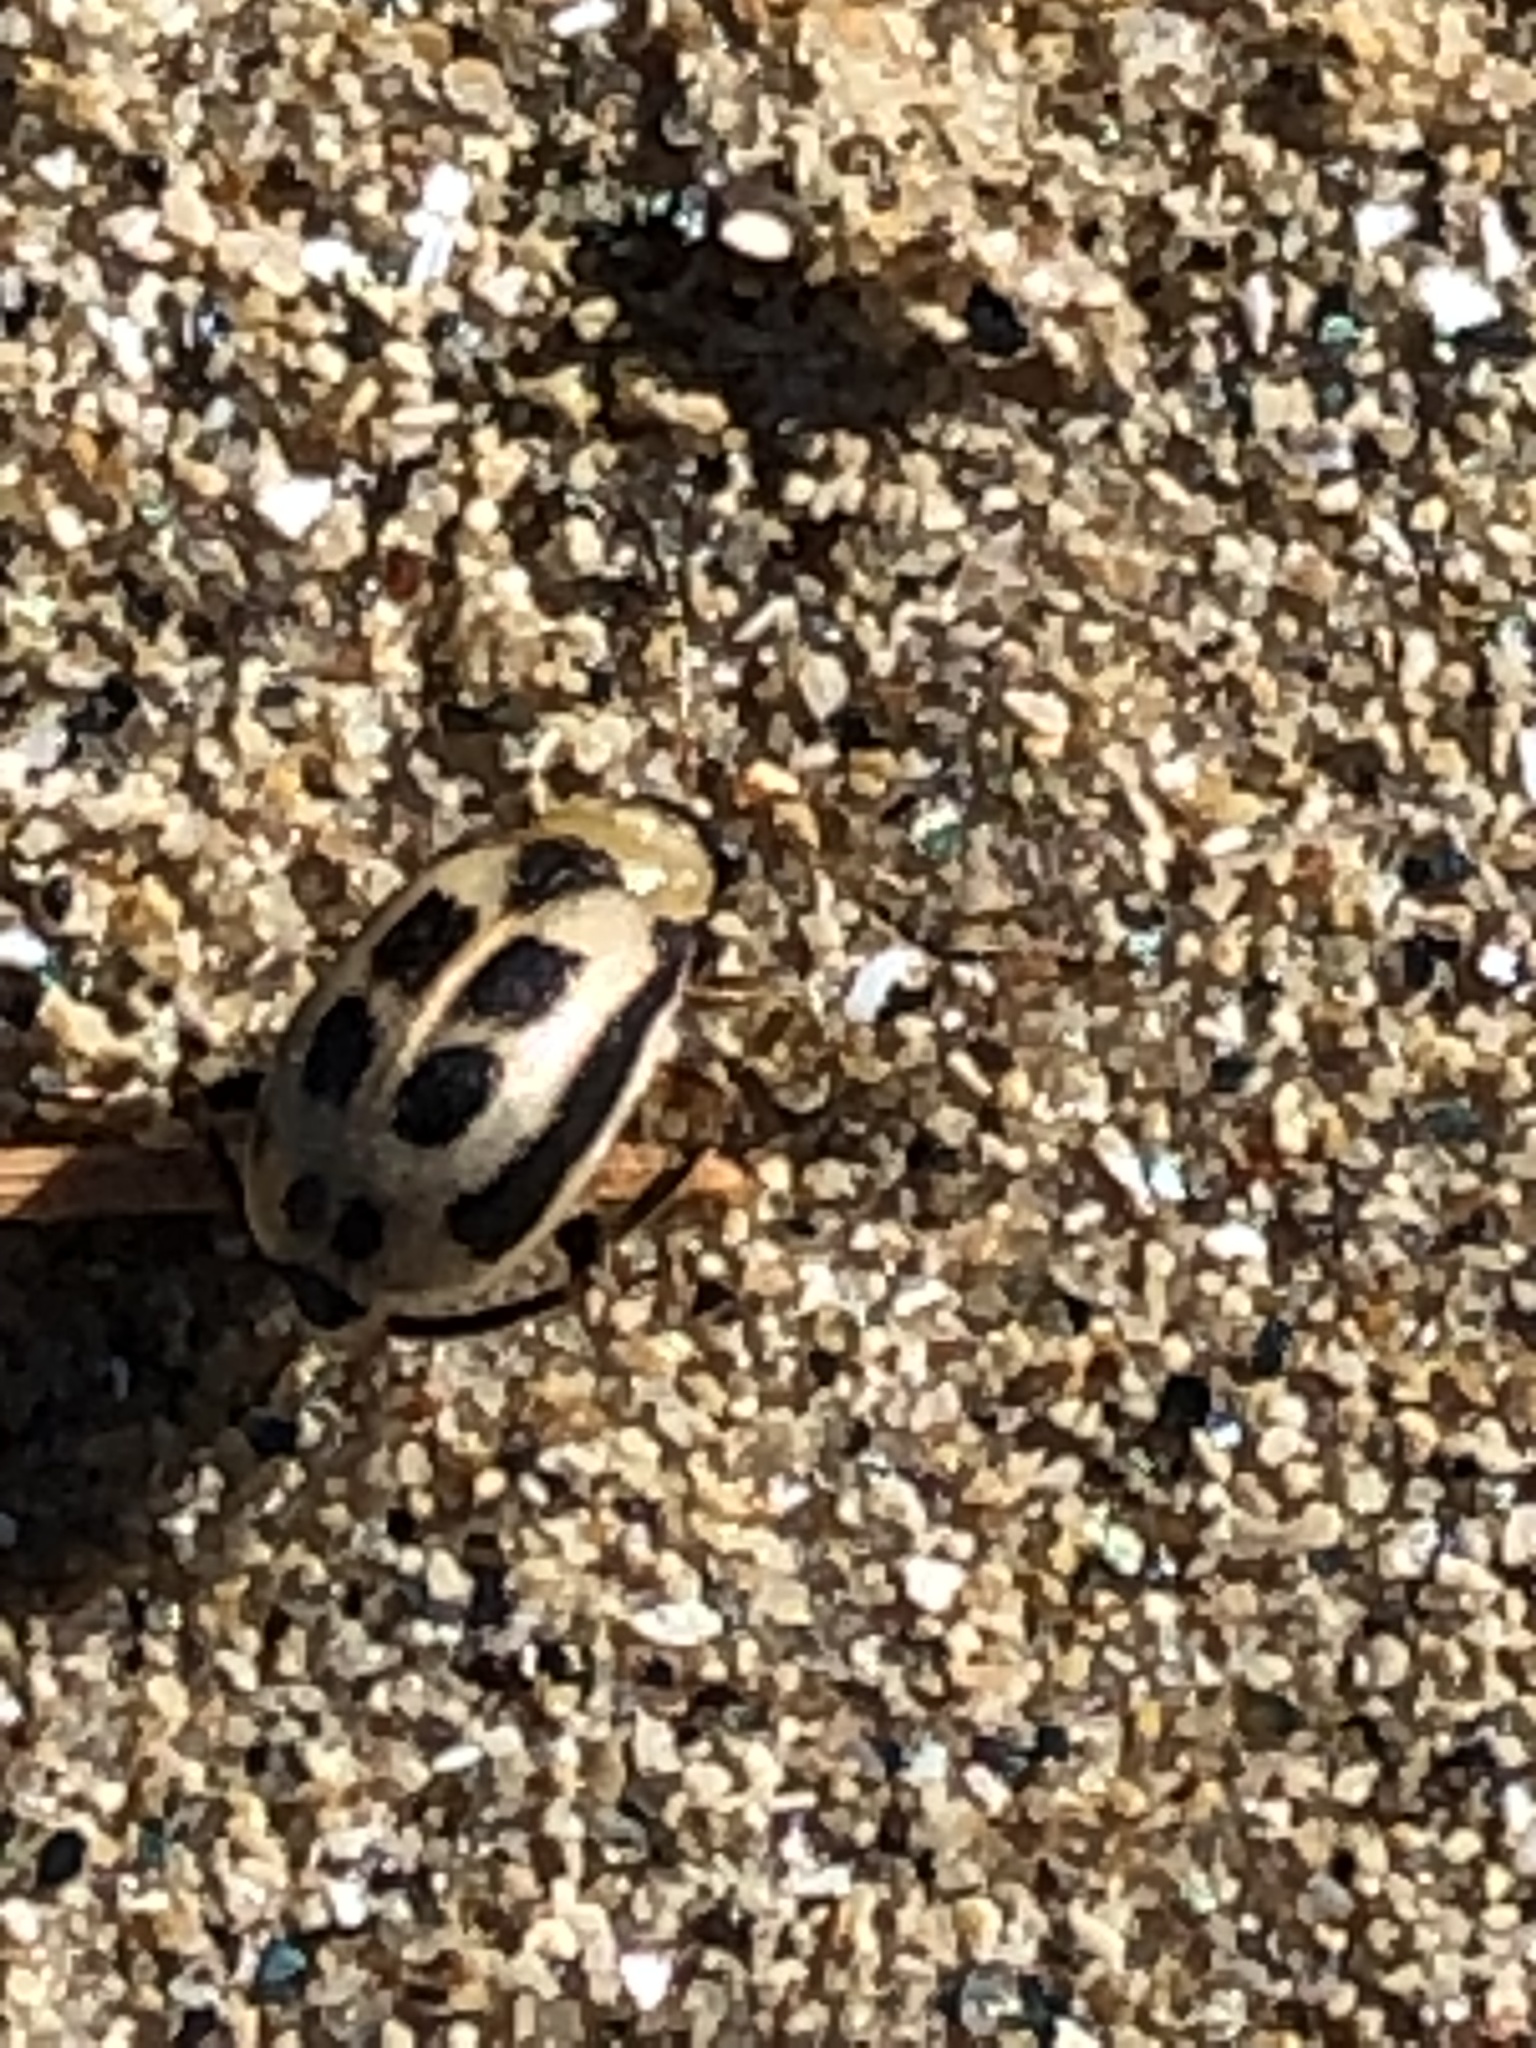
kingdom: Animalia
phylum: Arthropoda
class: Insecta
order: Coleoptera
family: Chrysomelidae
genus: Cerotoma
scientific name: Cerotoma trifurcata
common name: Bean leaf beetle
